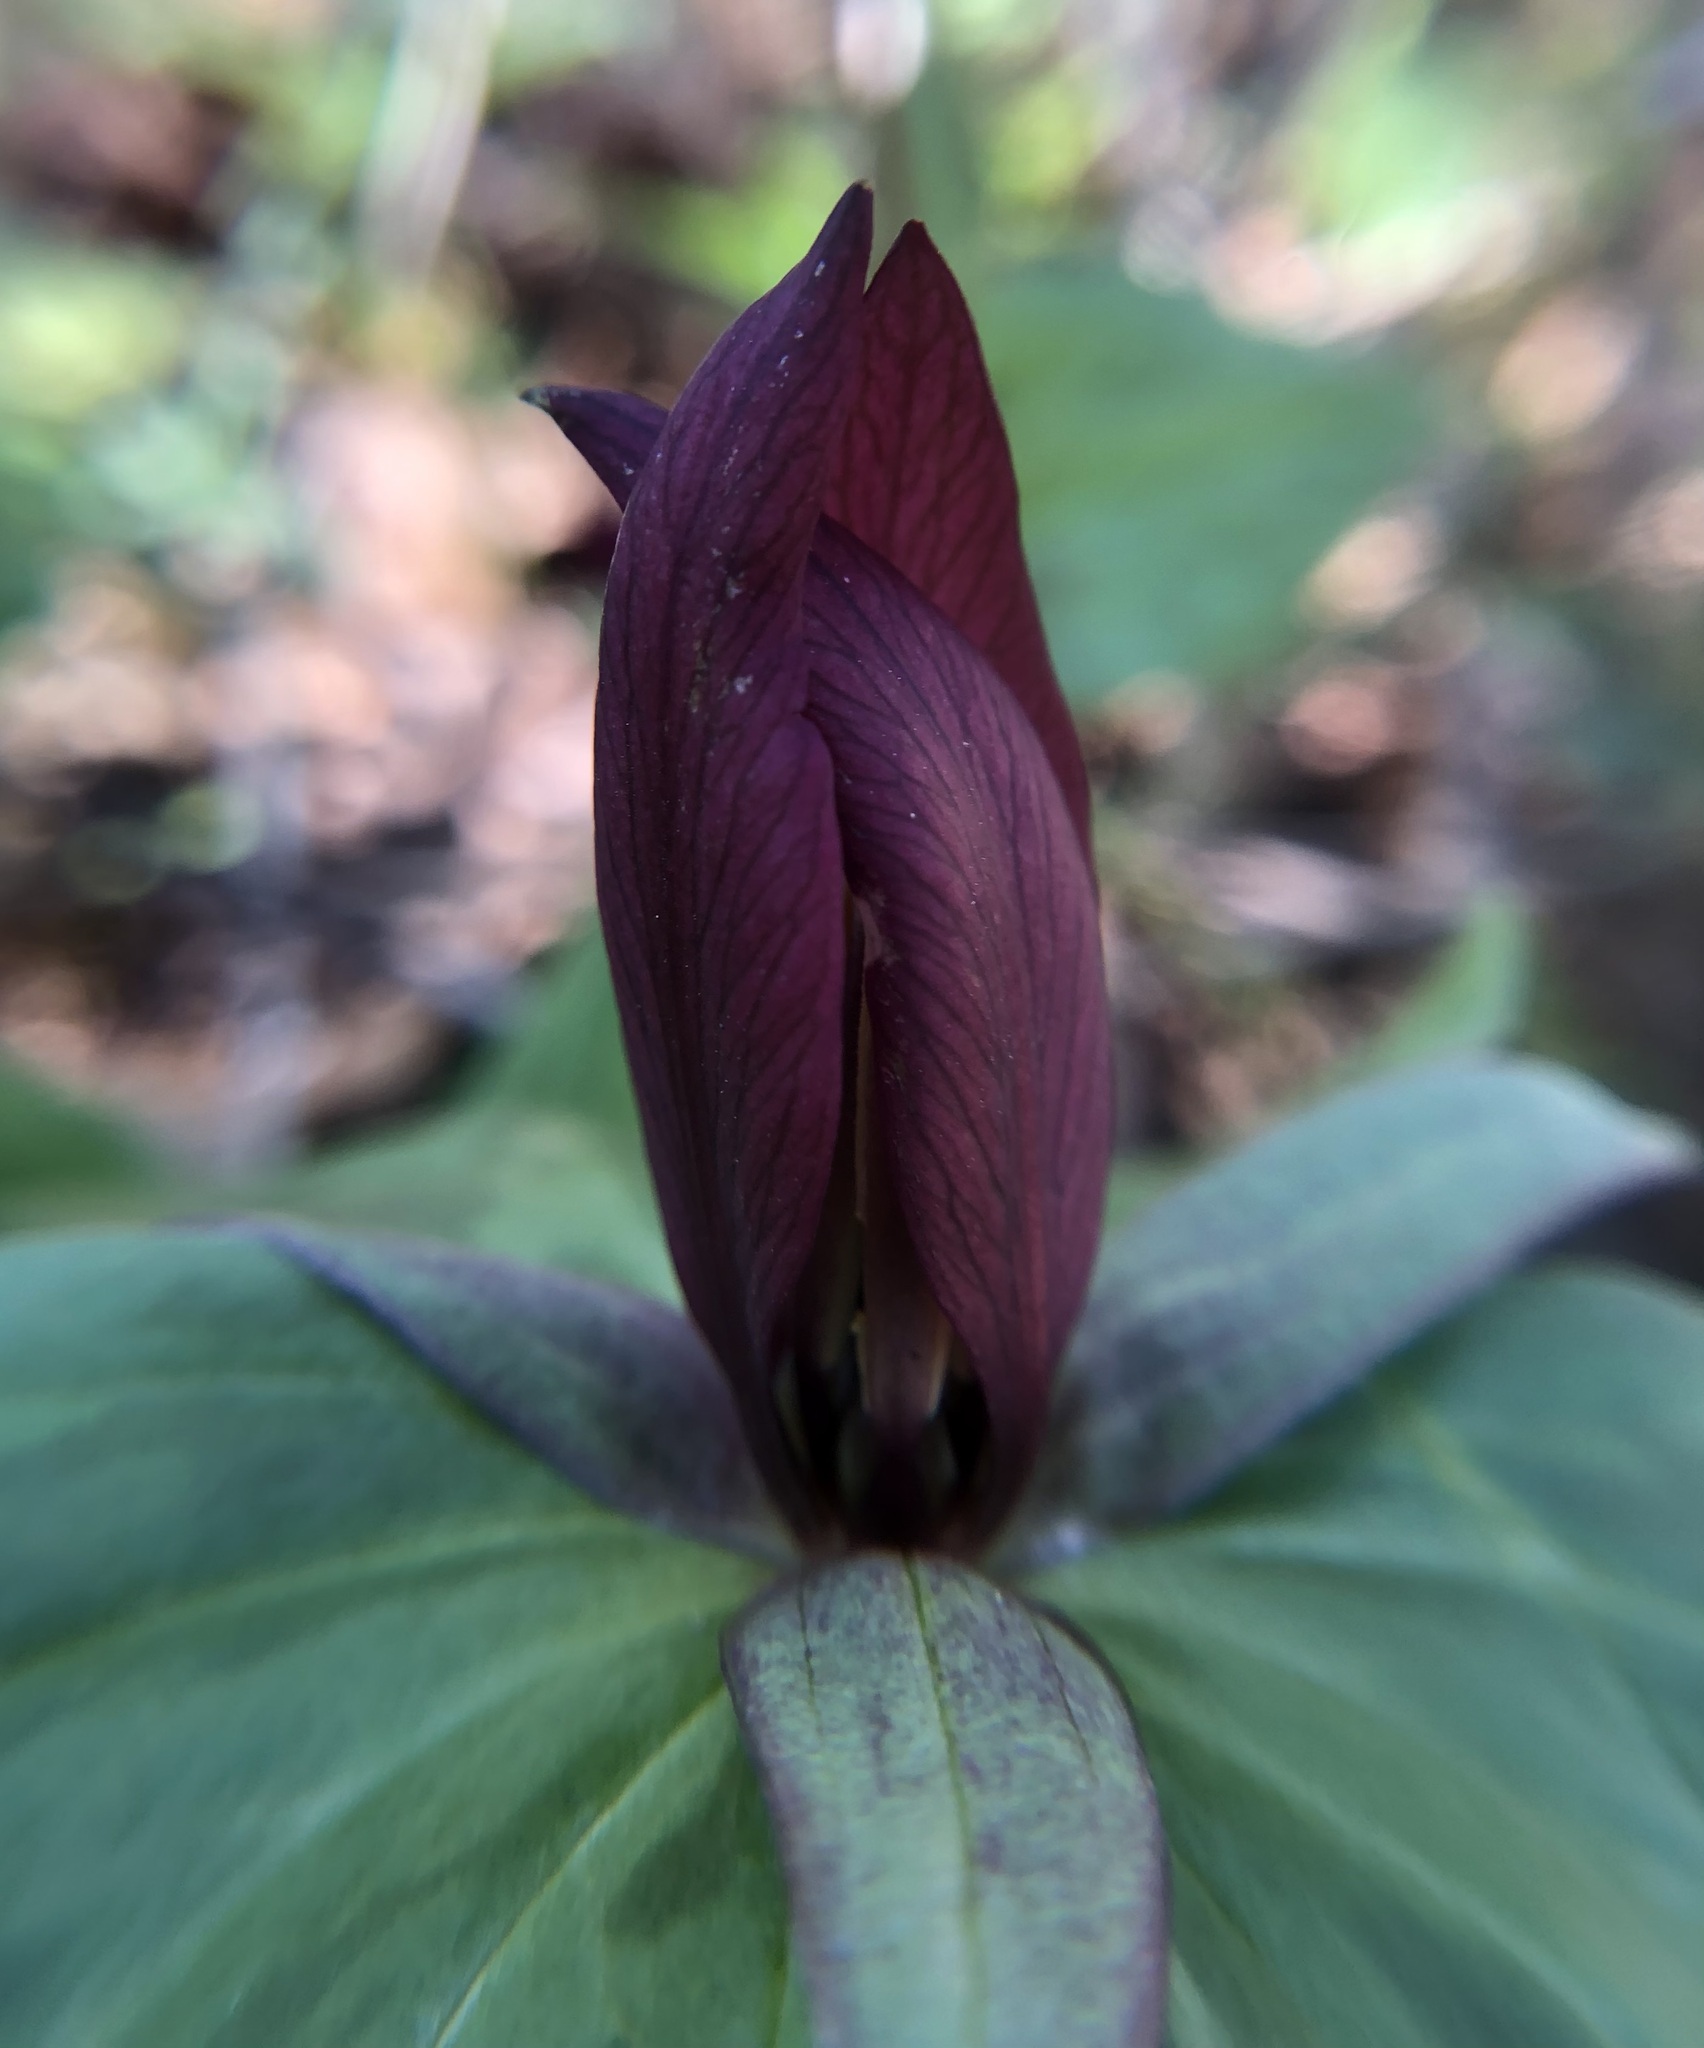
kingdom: Plantae
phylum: Tracheophyta
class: Liliopsida
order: Liliales
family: Melanthiaceae
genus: Trillium
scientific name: Trillium sessile
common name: Sessile trillium
